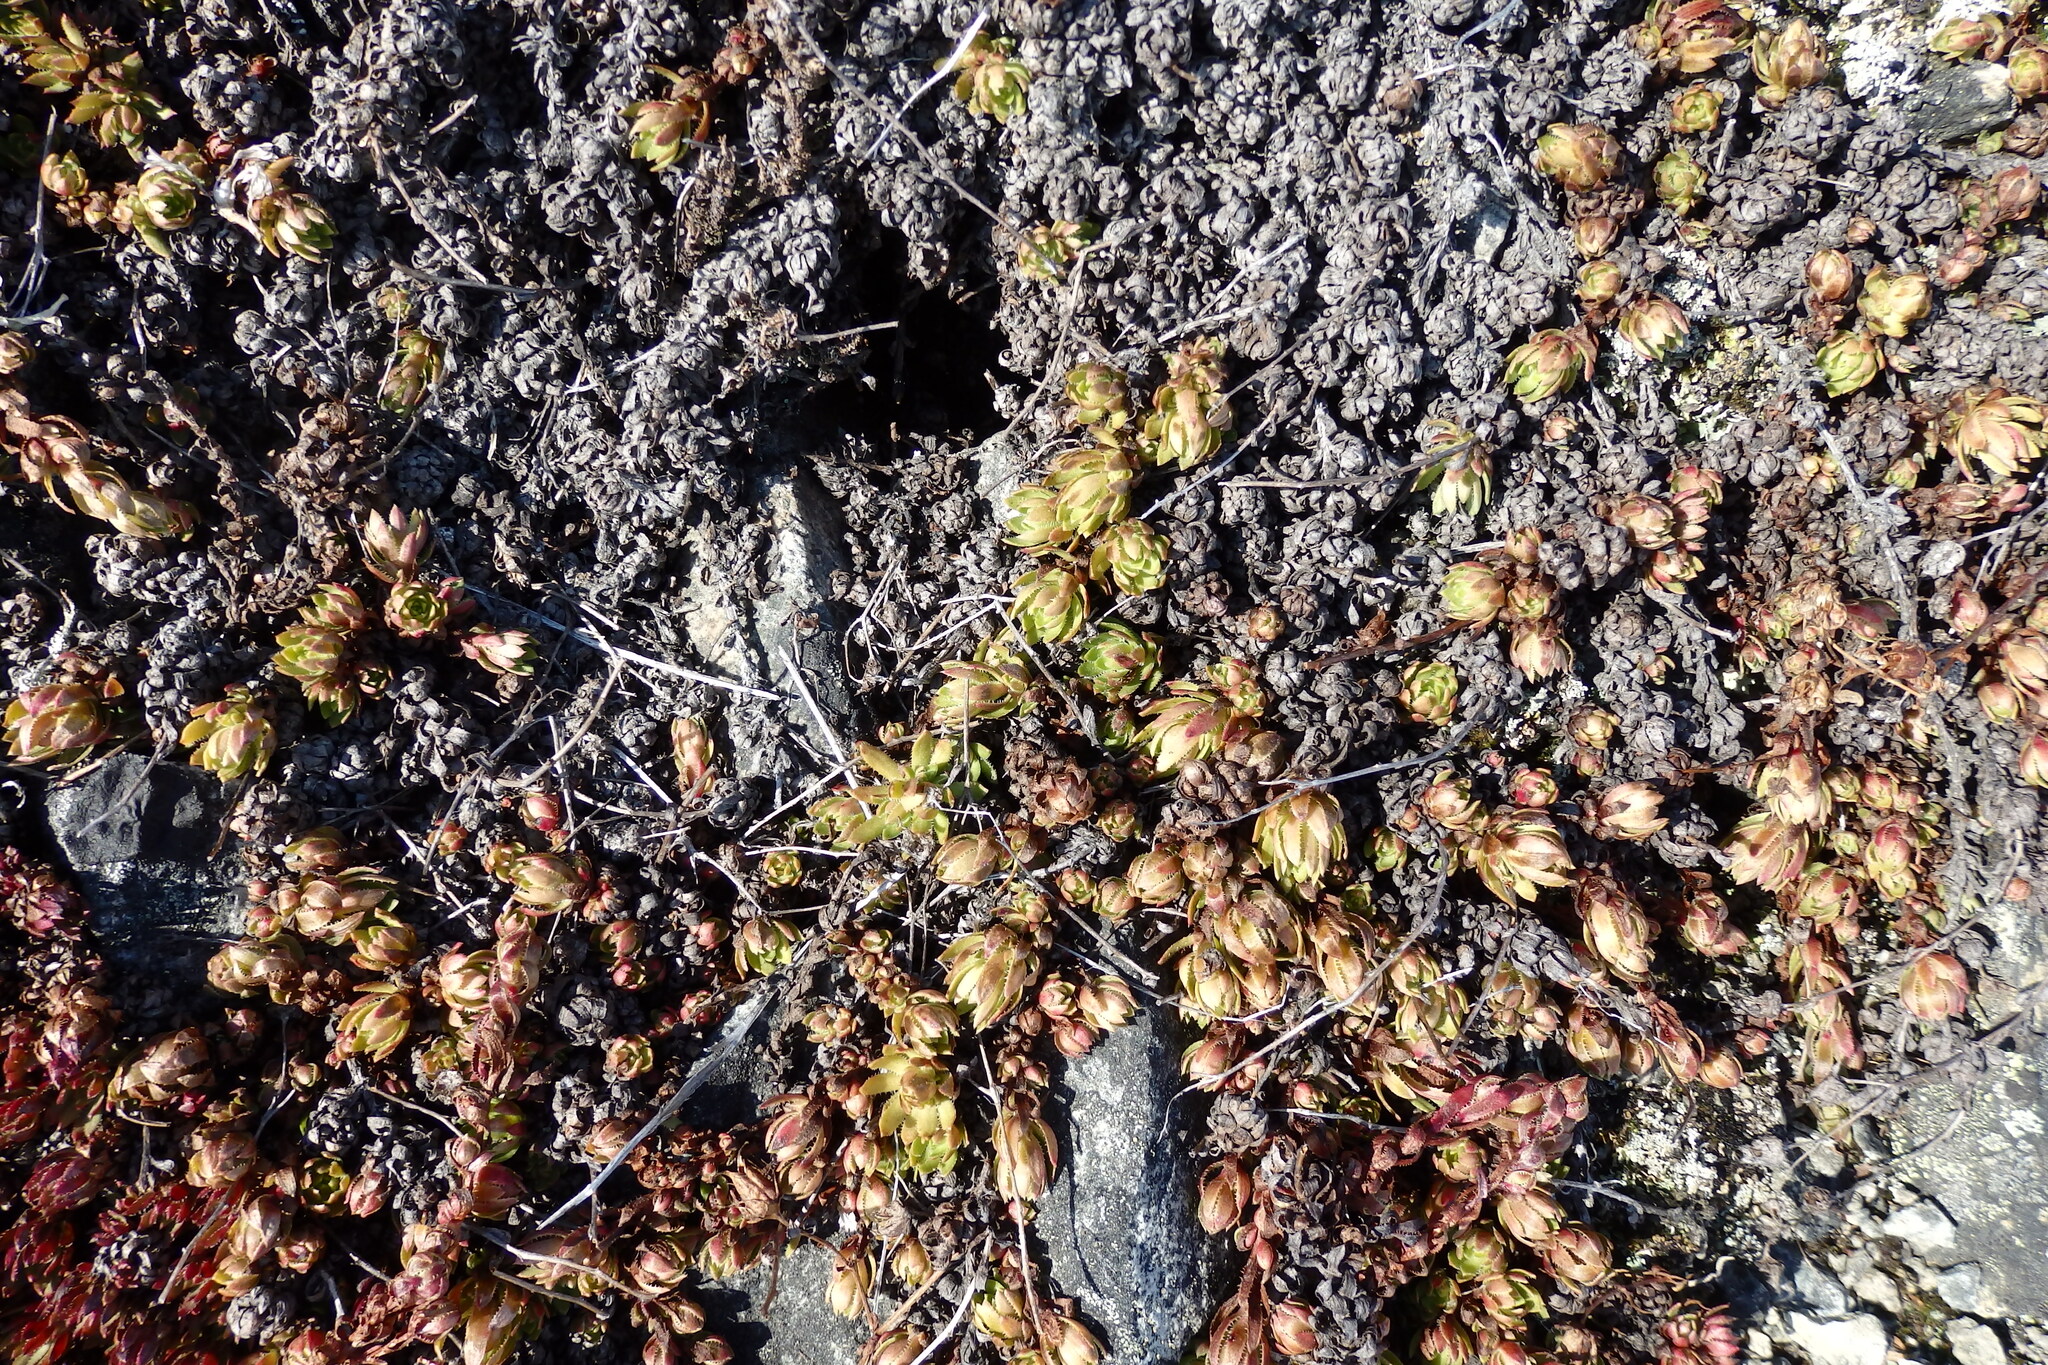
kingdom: Plantae
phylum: Tracheophyta
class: Magnoliopsida
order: Saxifragales
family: Saxifragaceae
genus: Saxifraga
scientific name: Saxifraga bronchialis
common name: Matted saxifrage
